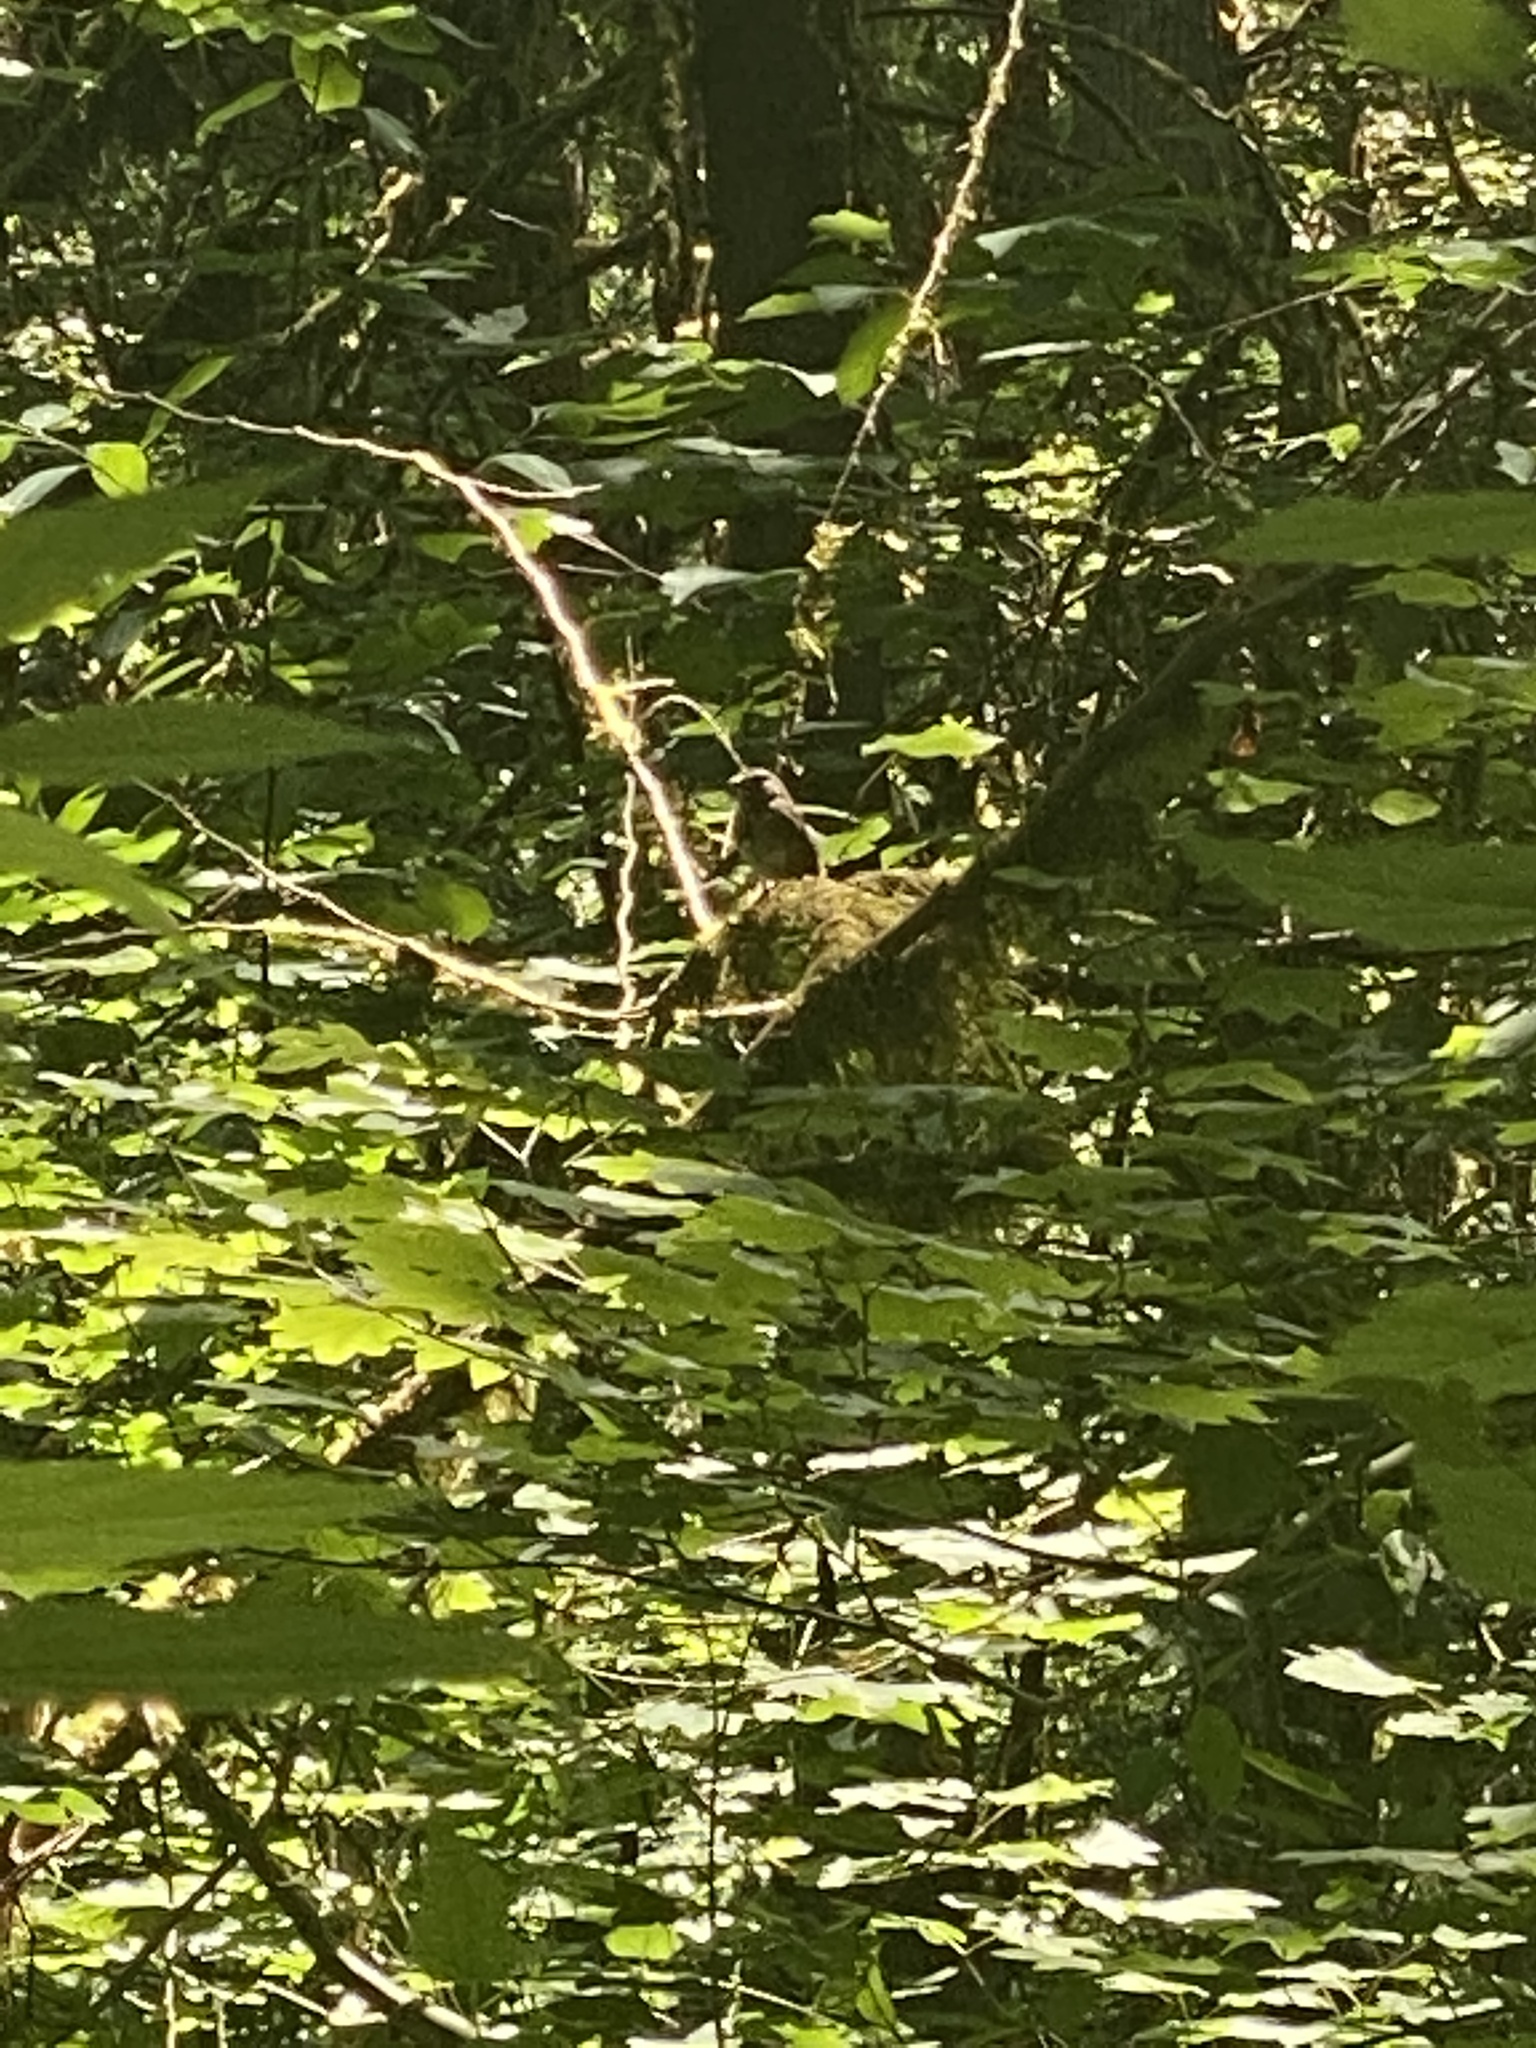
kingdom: Animalia
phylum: Chordata
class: Aves
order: Passeriformes
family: Passerellidae
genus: Melospiza
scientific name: Melospiza melodia
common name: Song sparrow
